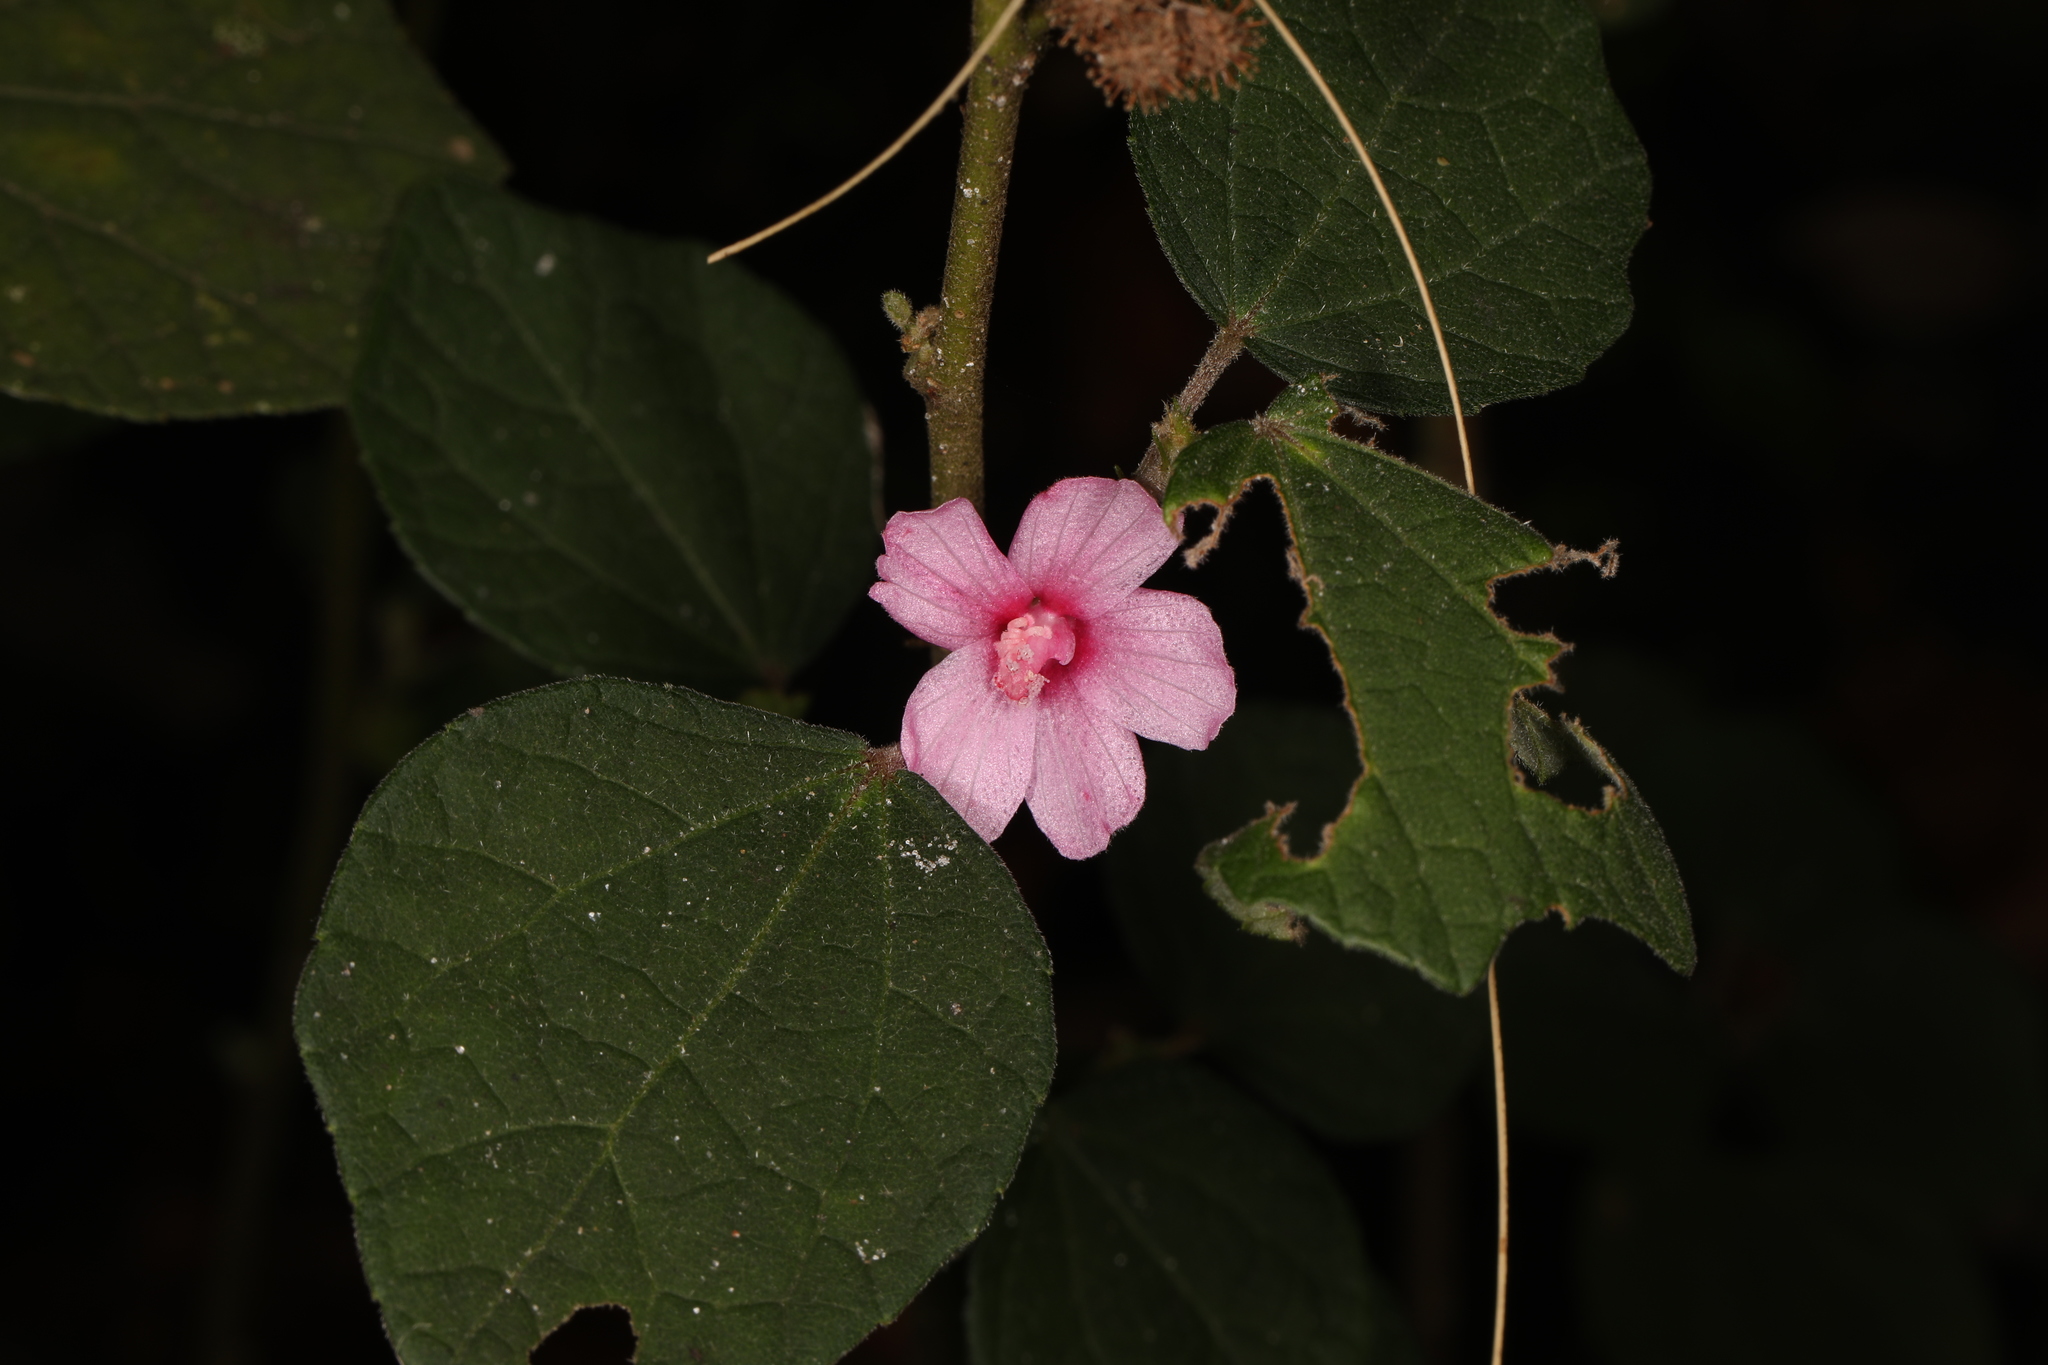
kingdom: Plantae
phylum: Tracheophyta
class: Magnoliopsida
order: Malvales
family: Malvaceae
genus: Urena
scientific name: Urena lobata
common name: Caesarweed
